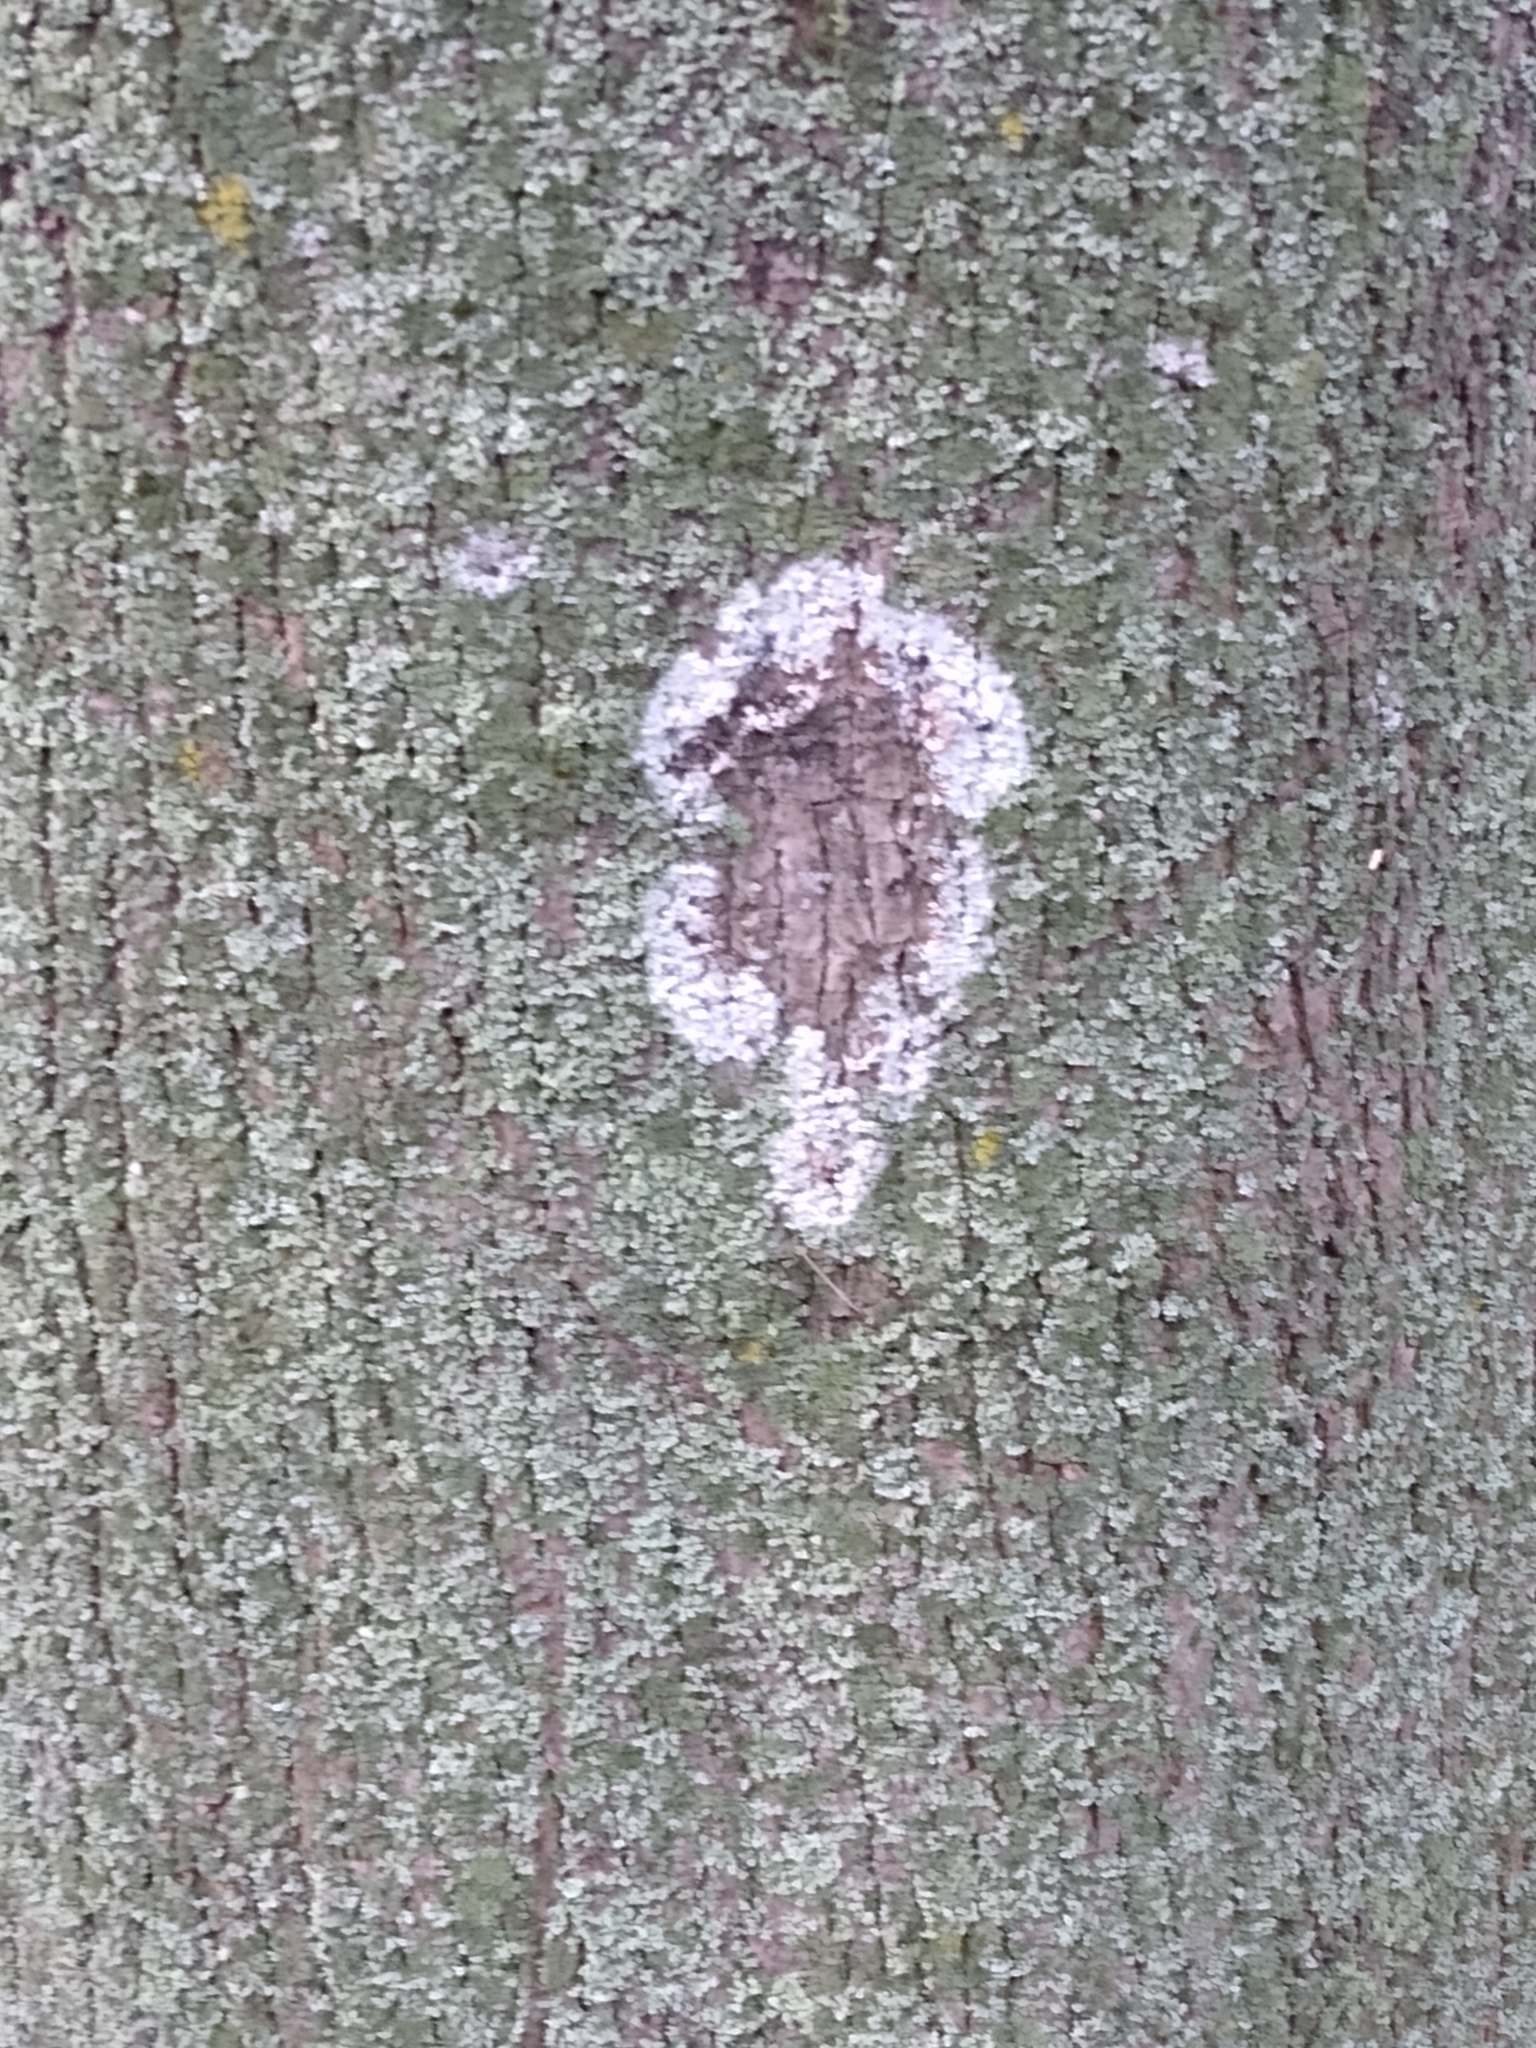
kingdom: Fungi
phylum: Basidiomycota
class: Agaricomycetes
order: Atheliales
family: Atheliaceae
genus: Athelia
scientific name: Athelia arachnoidea
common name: Candelabra duster
